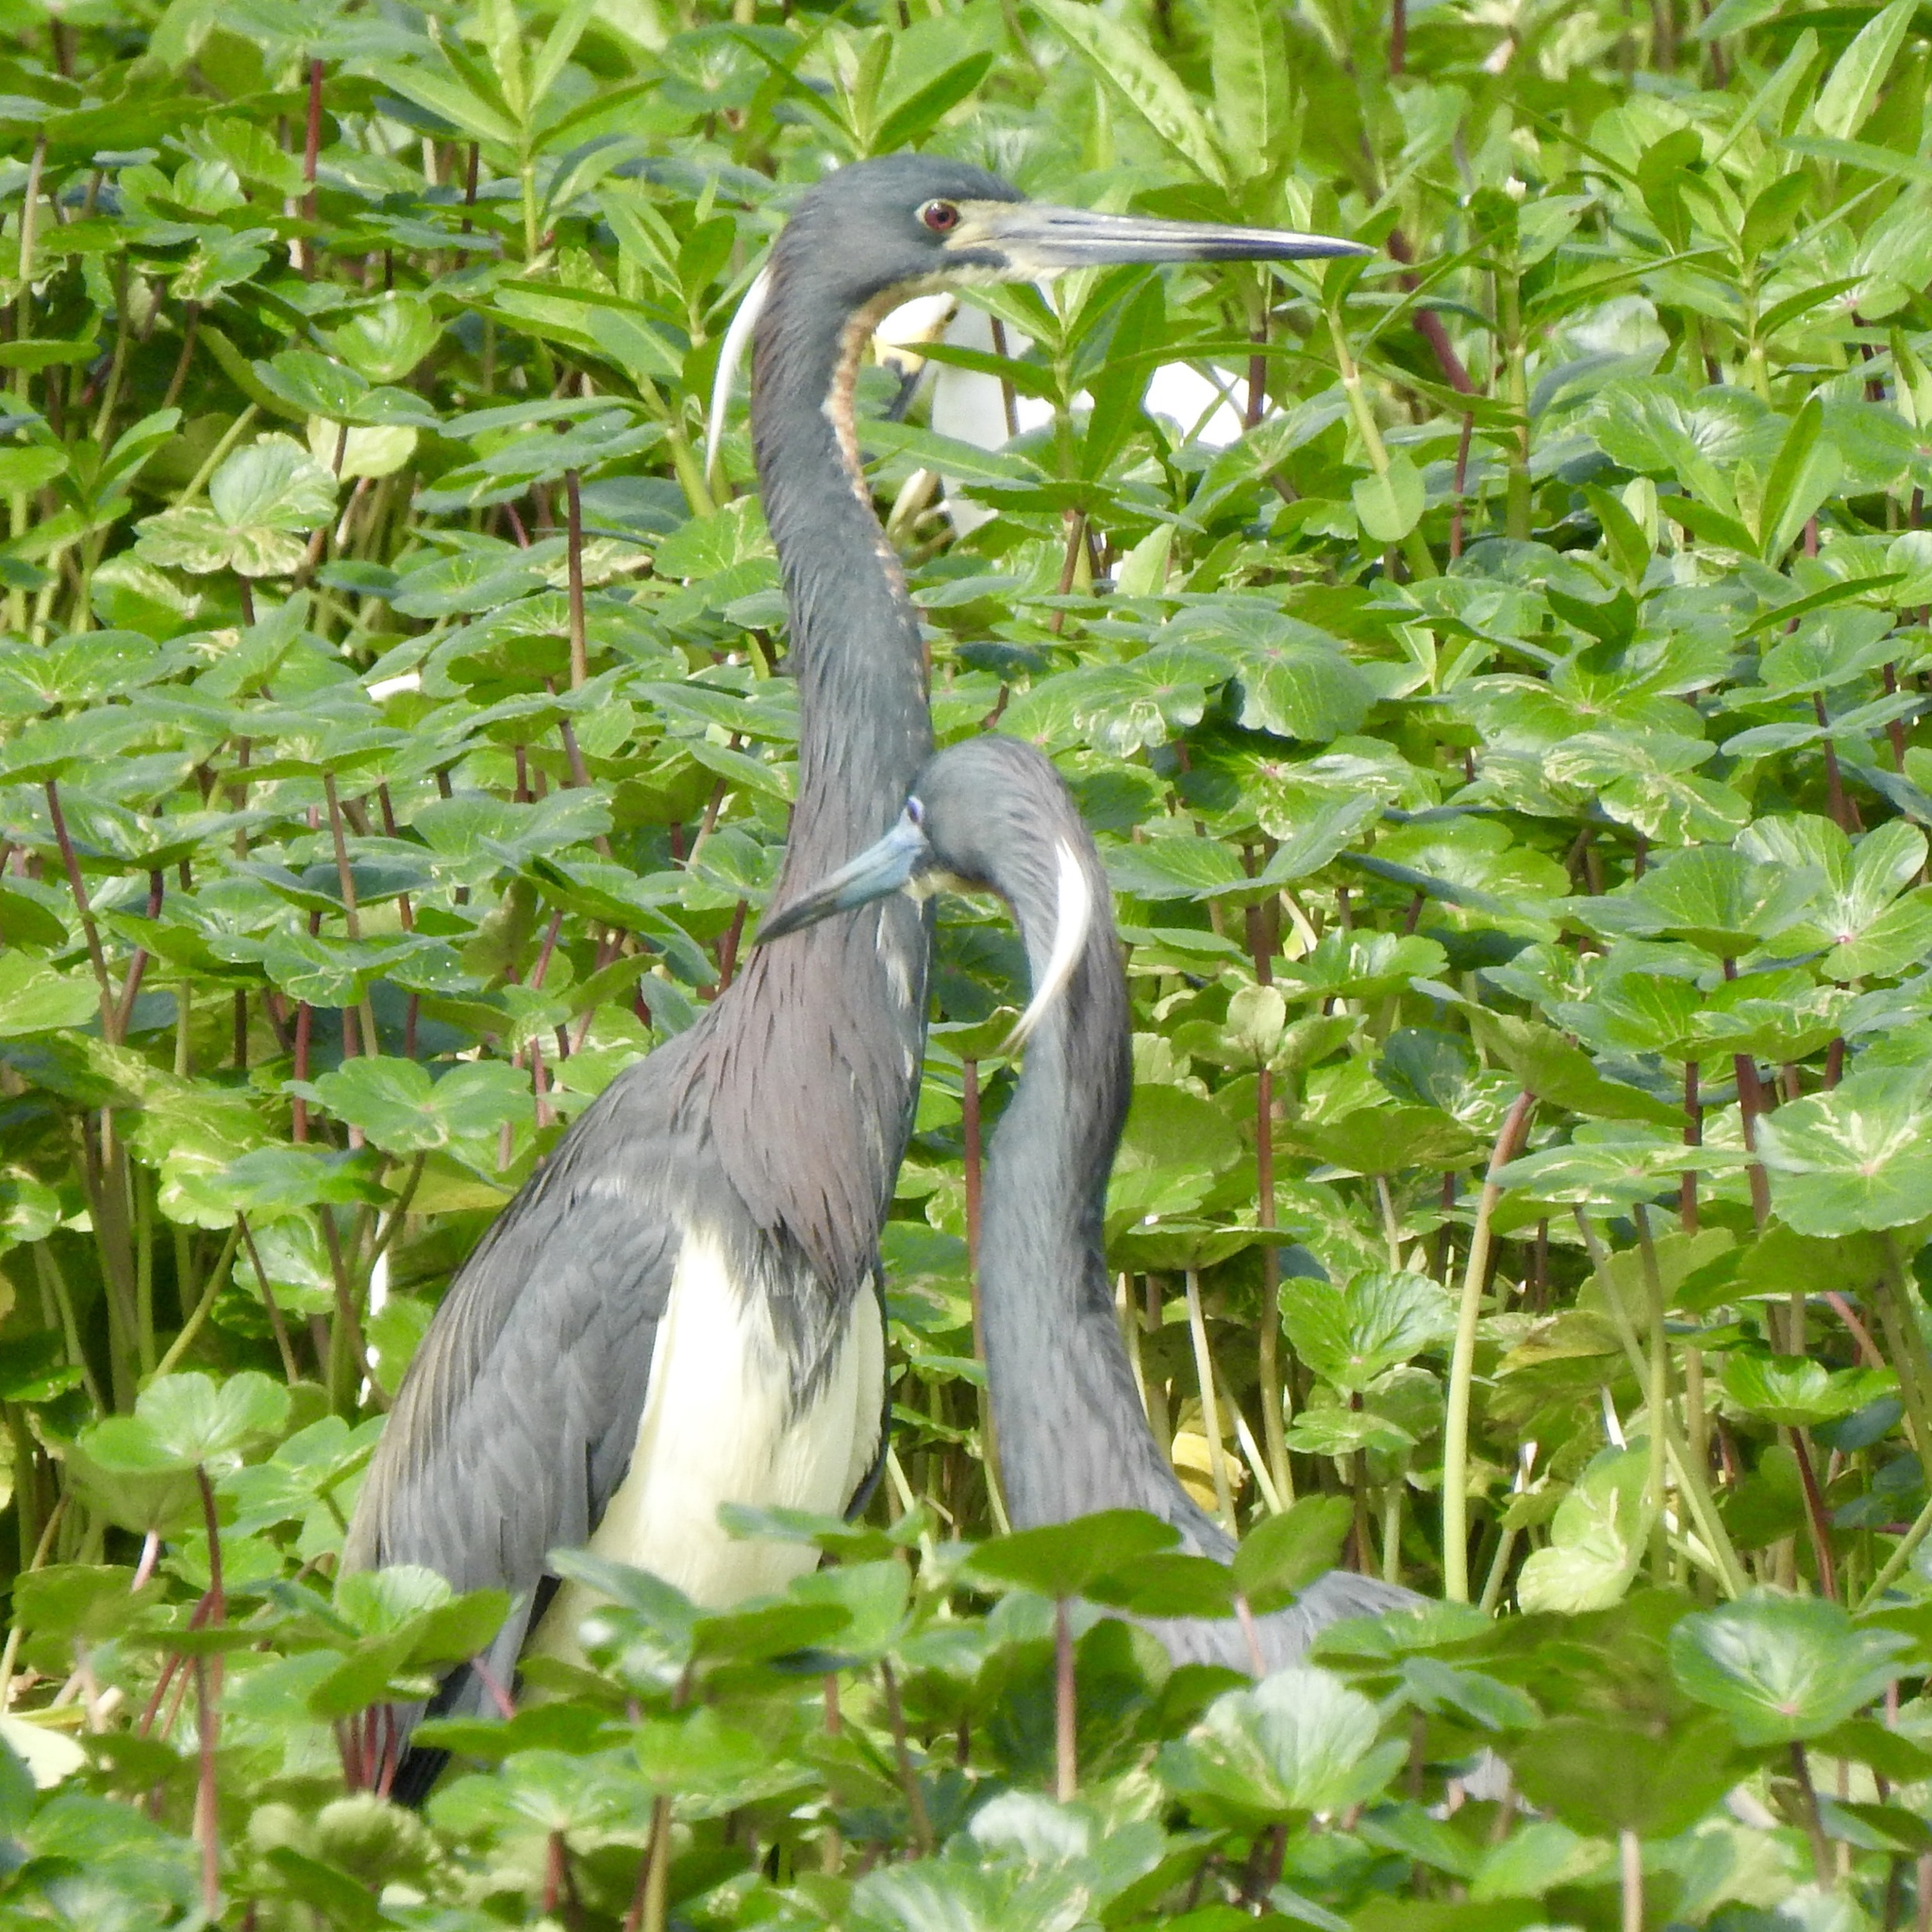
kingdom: Animalia
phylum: Chordata
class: Aves
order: Pelecaniformes
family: Ardeidae
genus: Egretta
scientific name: Egretta tricolor
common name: Tricolored heron
